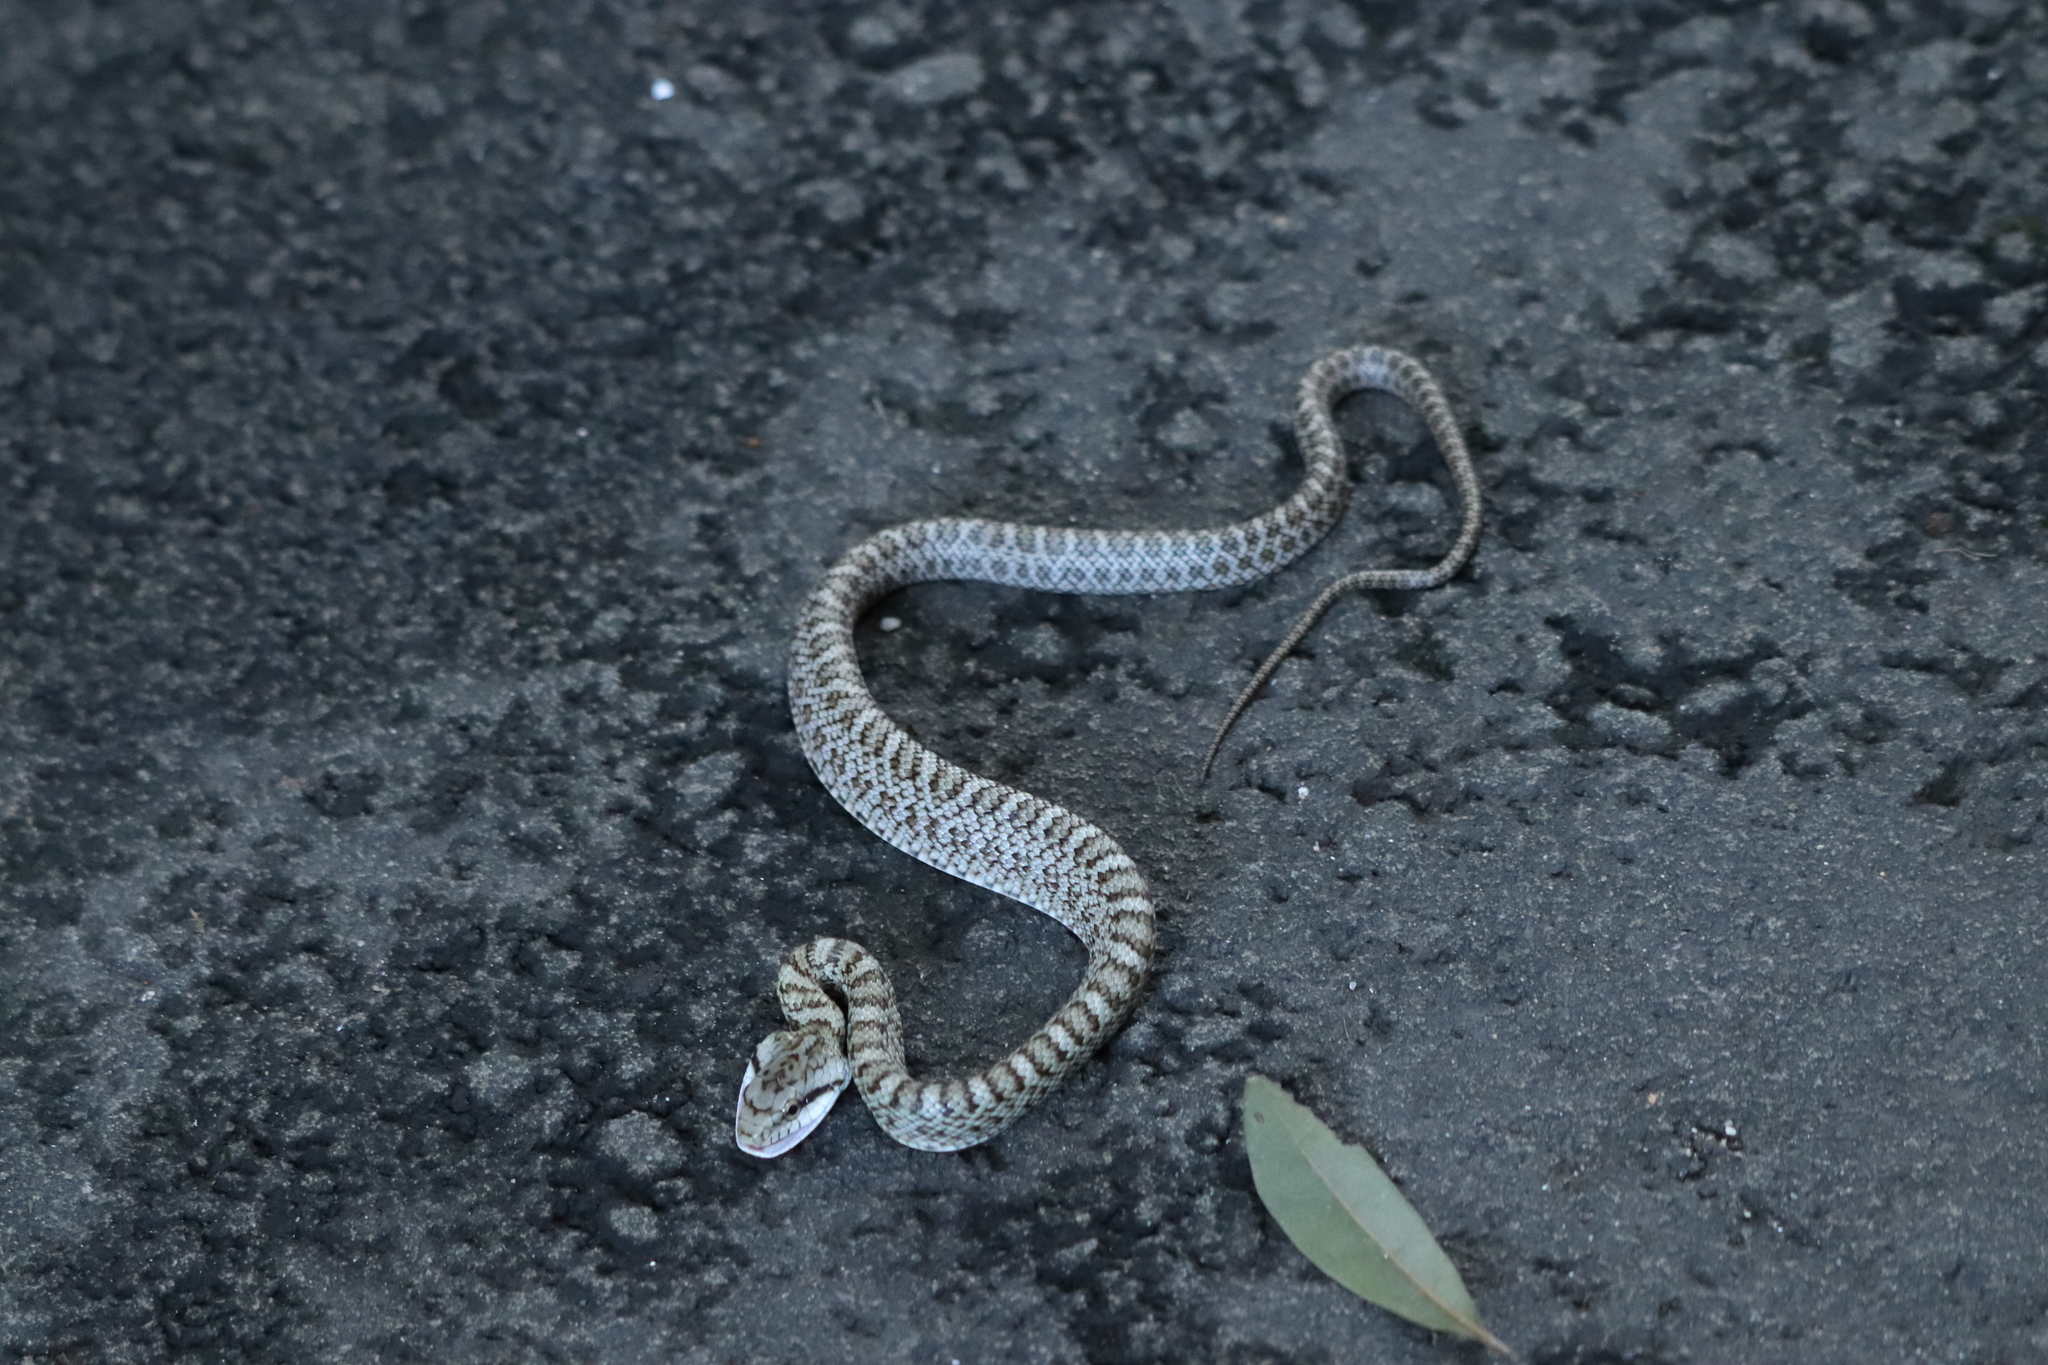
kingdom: Animalia
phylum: Chordata
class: Squamata
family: Colubridae
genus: Elaphe
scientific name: Elaphe climacophora
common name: Japanese ratsnake
